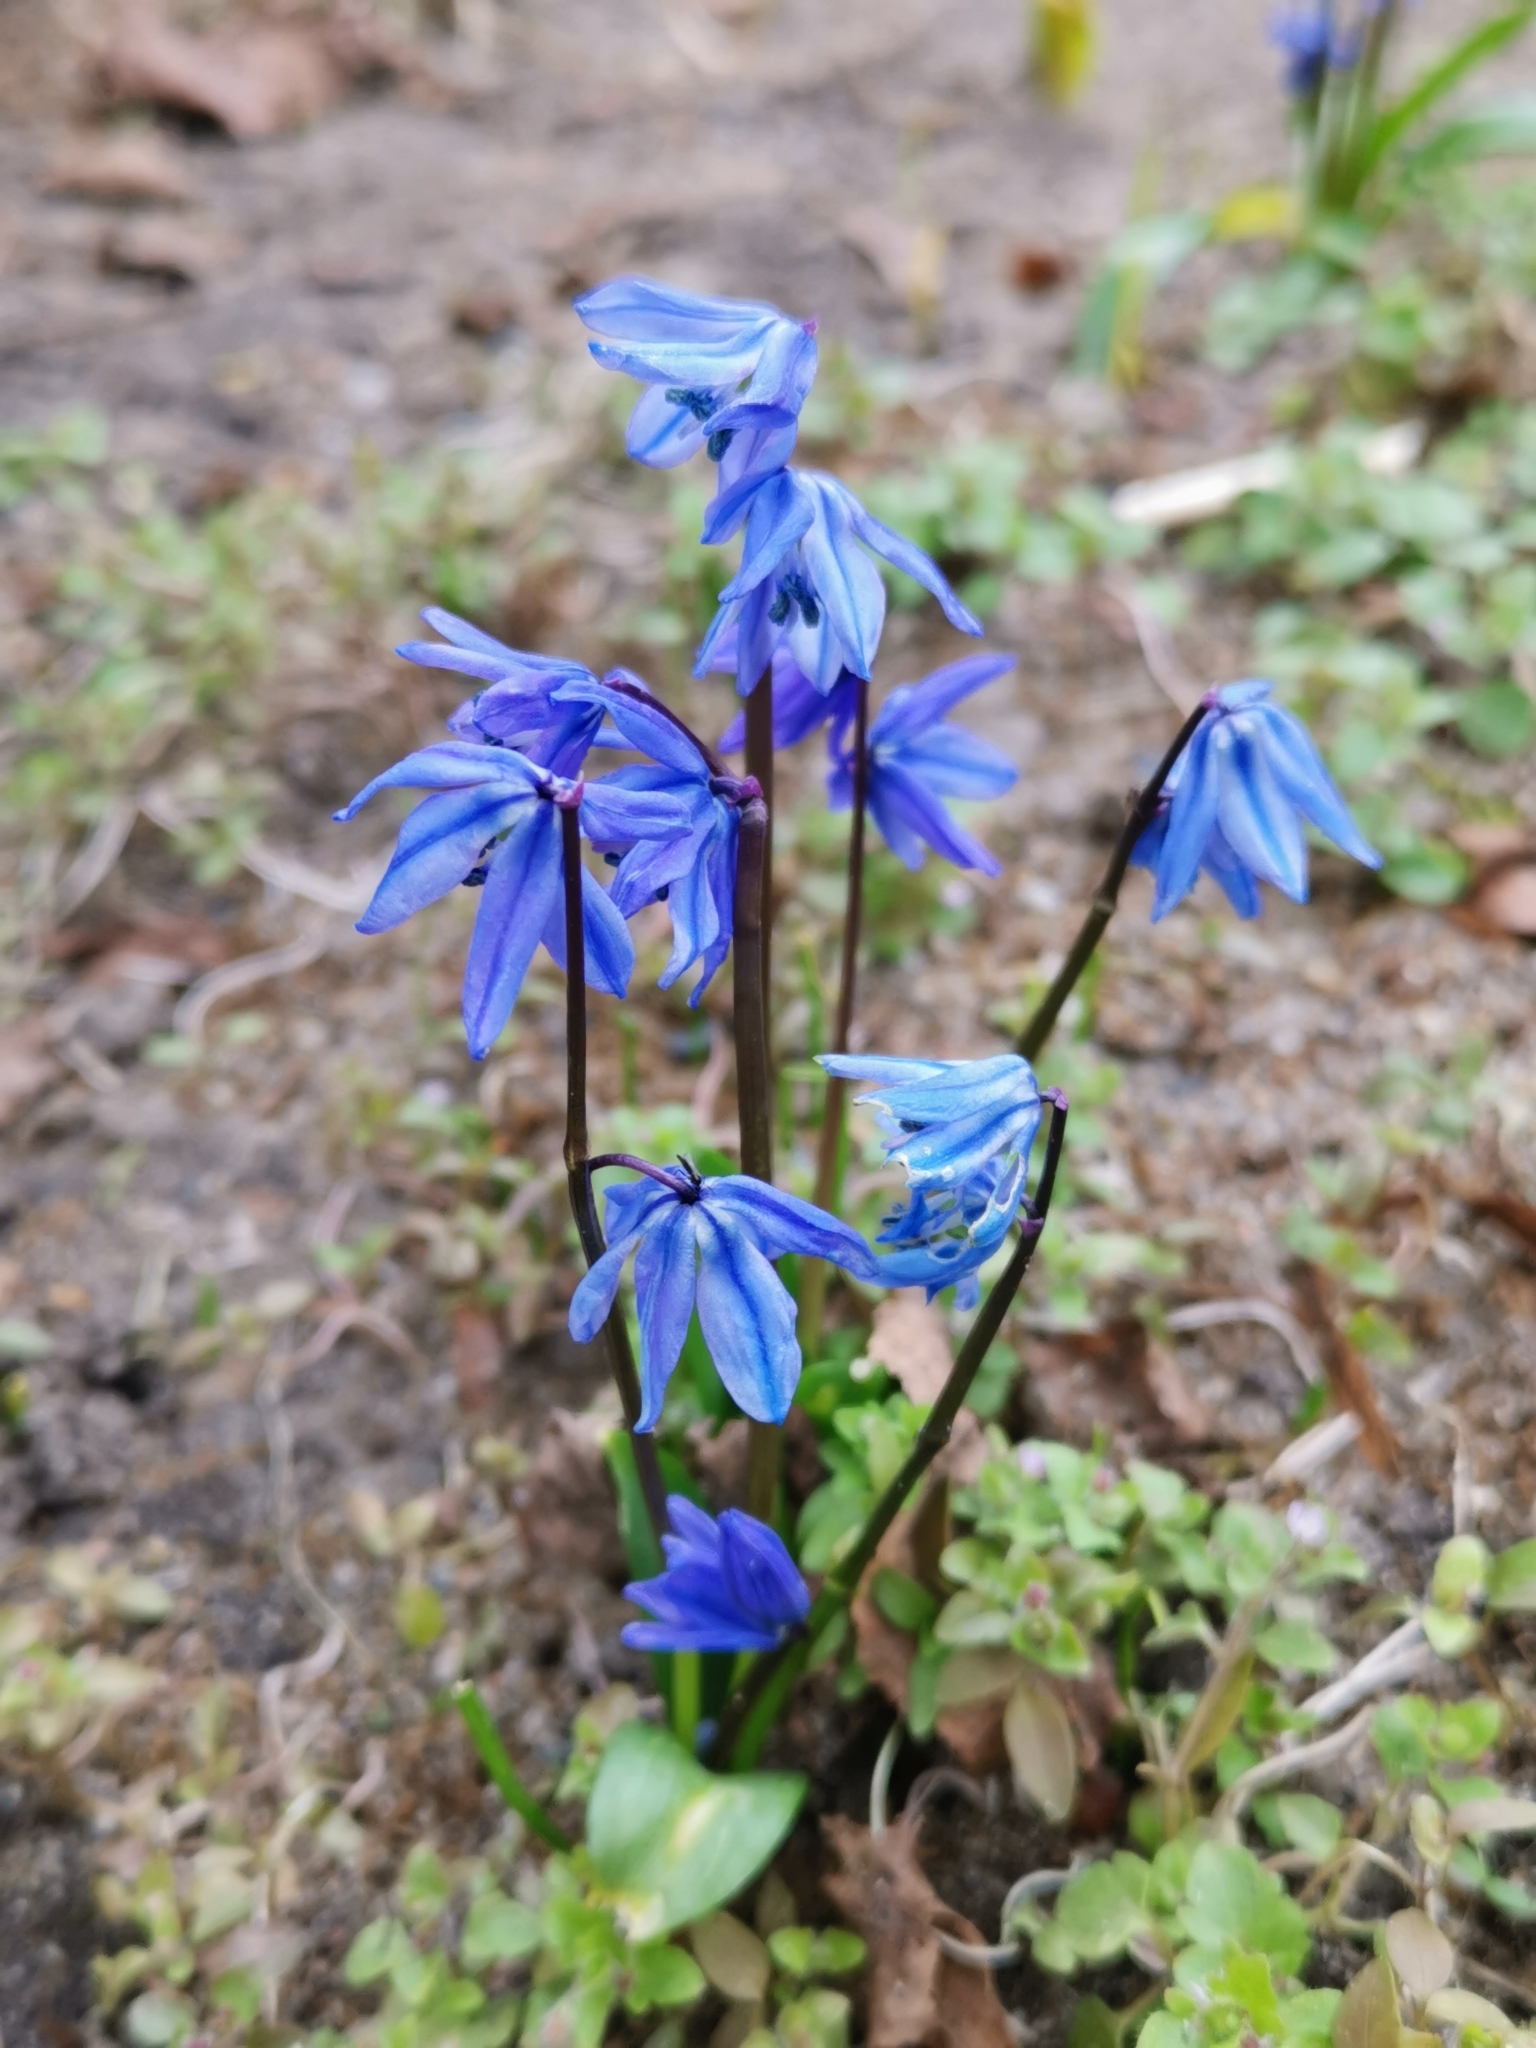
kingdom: Plantae
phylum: Tracheophyta
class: Liliopsida
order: Asparagales
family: Asparagaceae
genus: Scilla
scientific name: Scilla siberica
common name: Siberian squill
